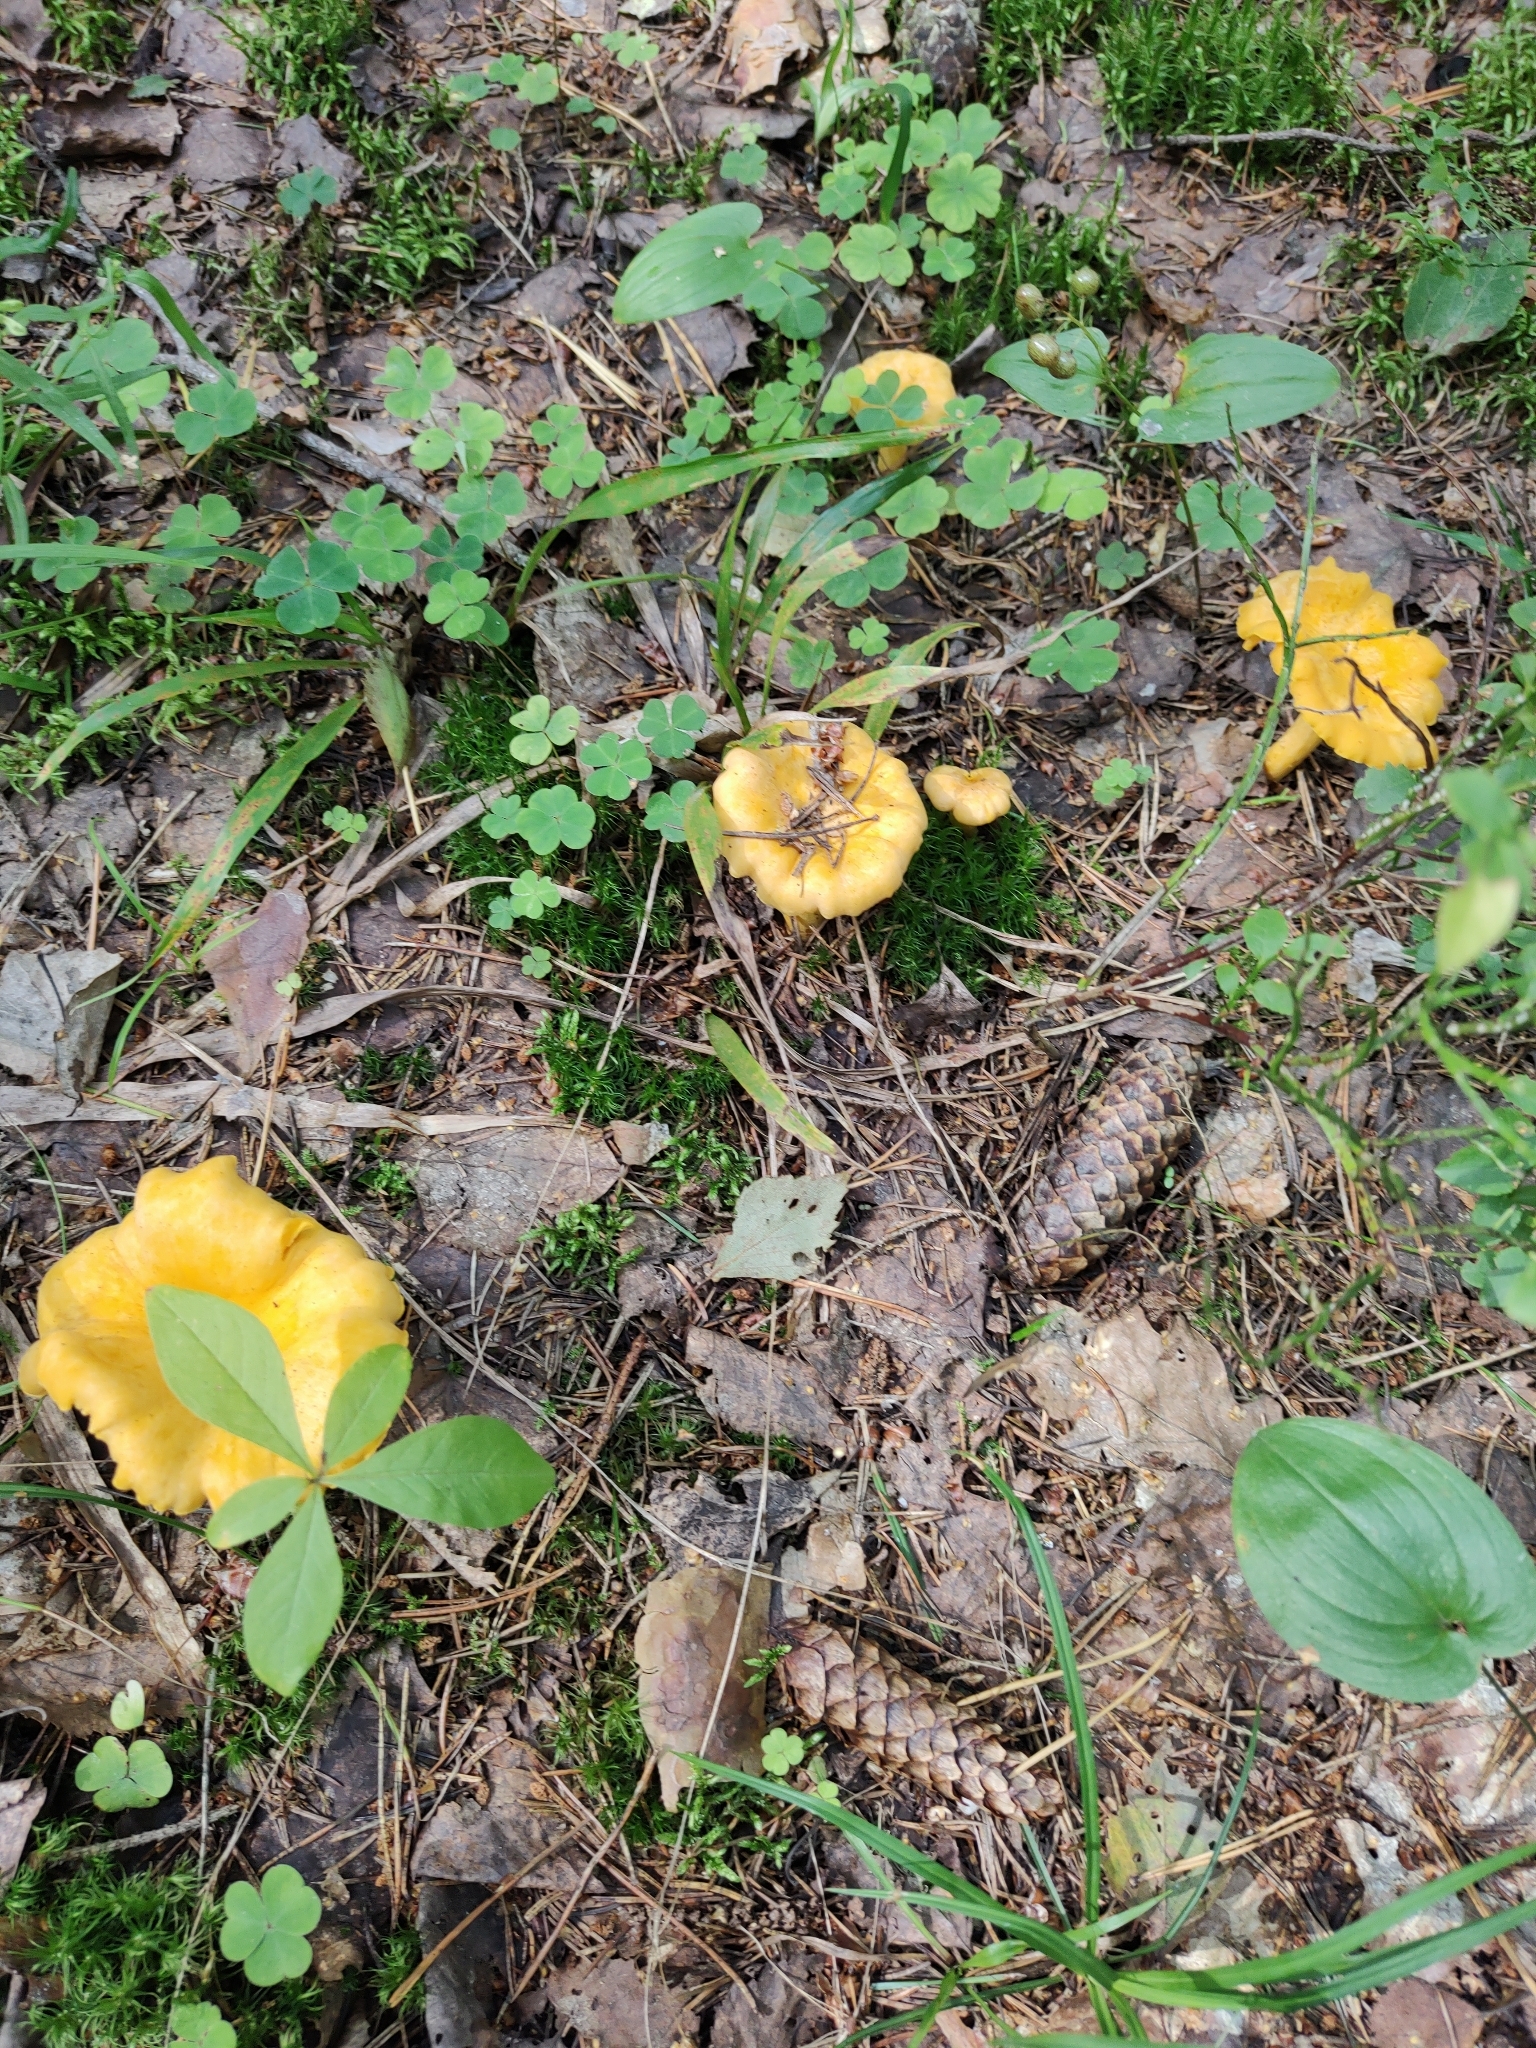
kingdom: Fungi
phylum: Basidiomycota
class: Agaricomycetes
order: Cantharellales
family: Hydnaceae
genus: Cantharellus
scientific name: Cantharellus cibarius
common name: Chanterelle
